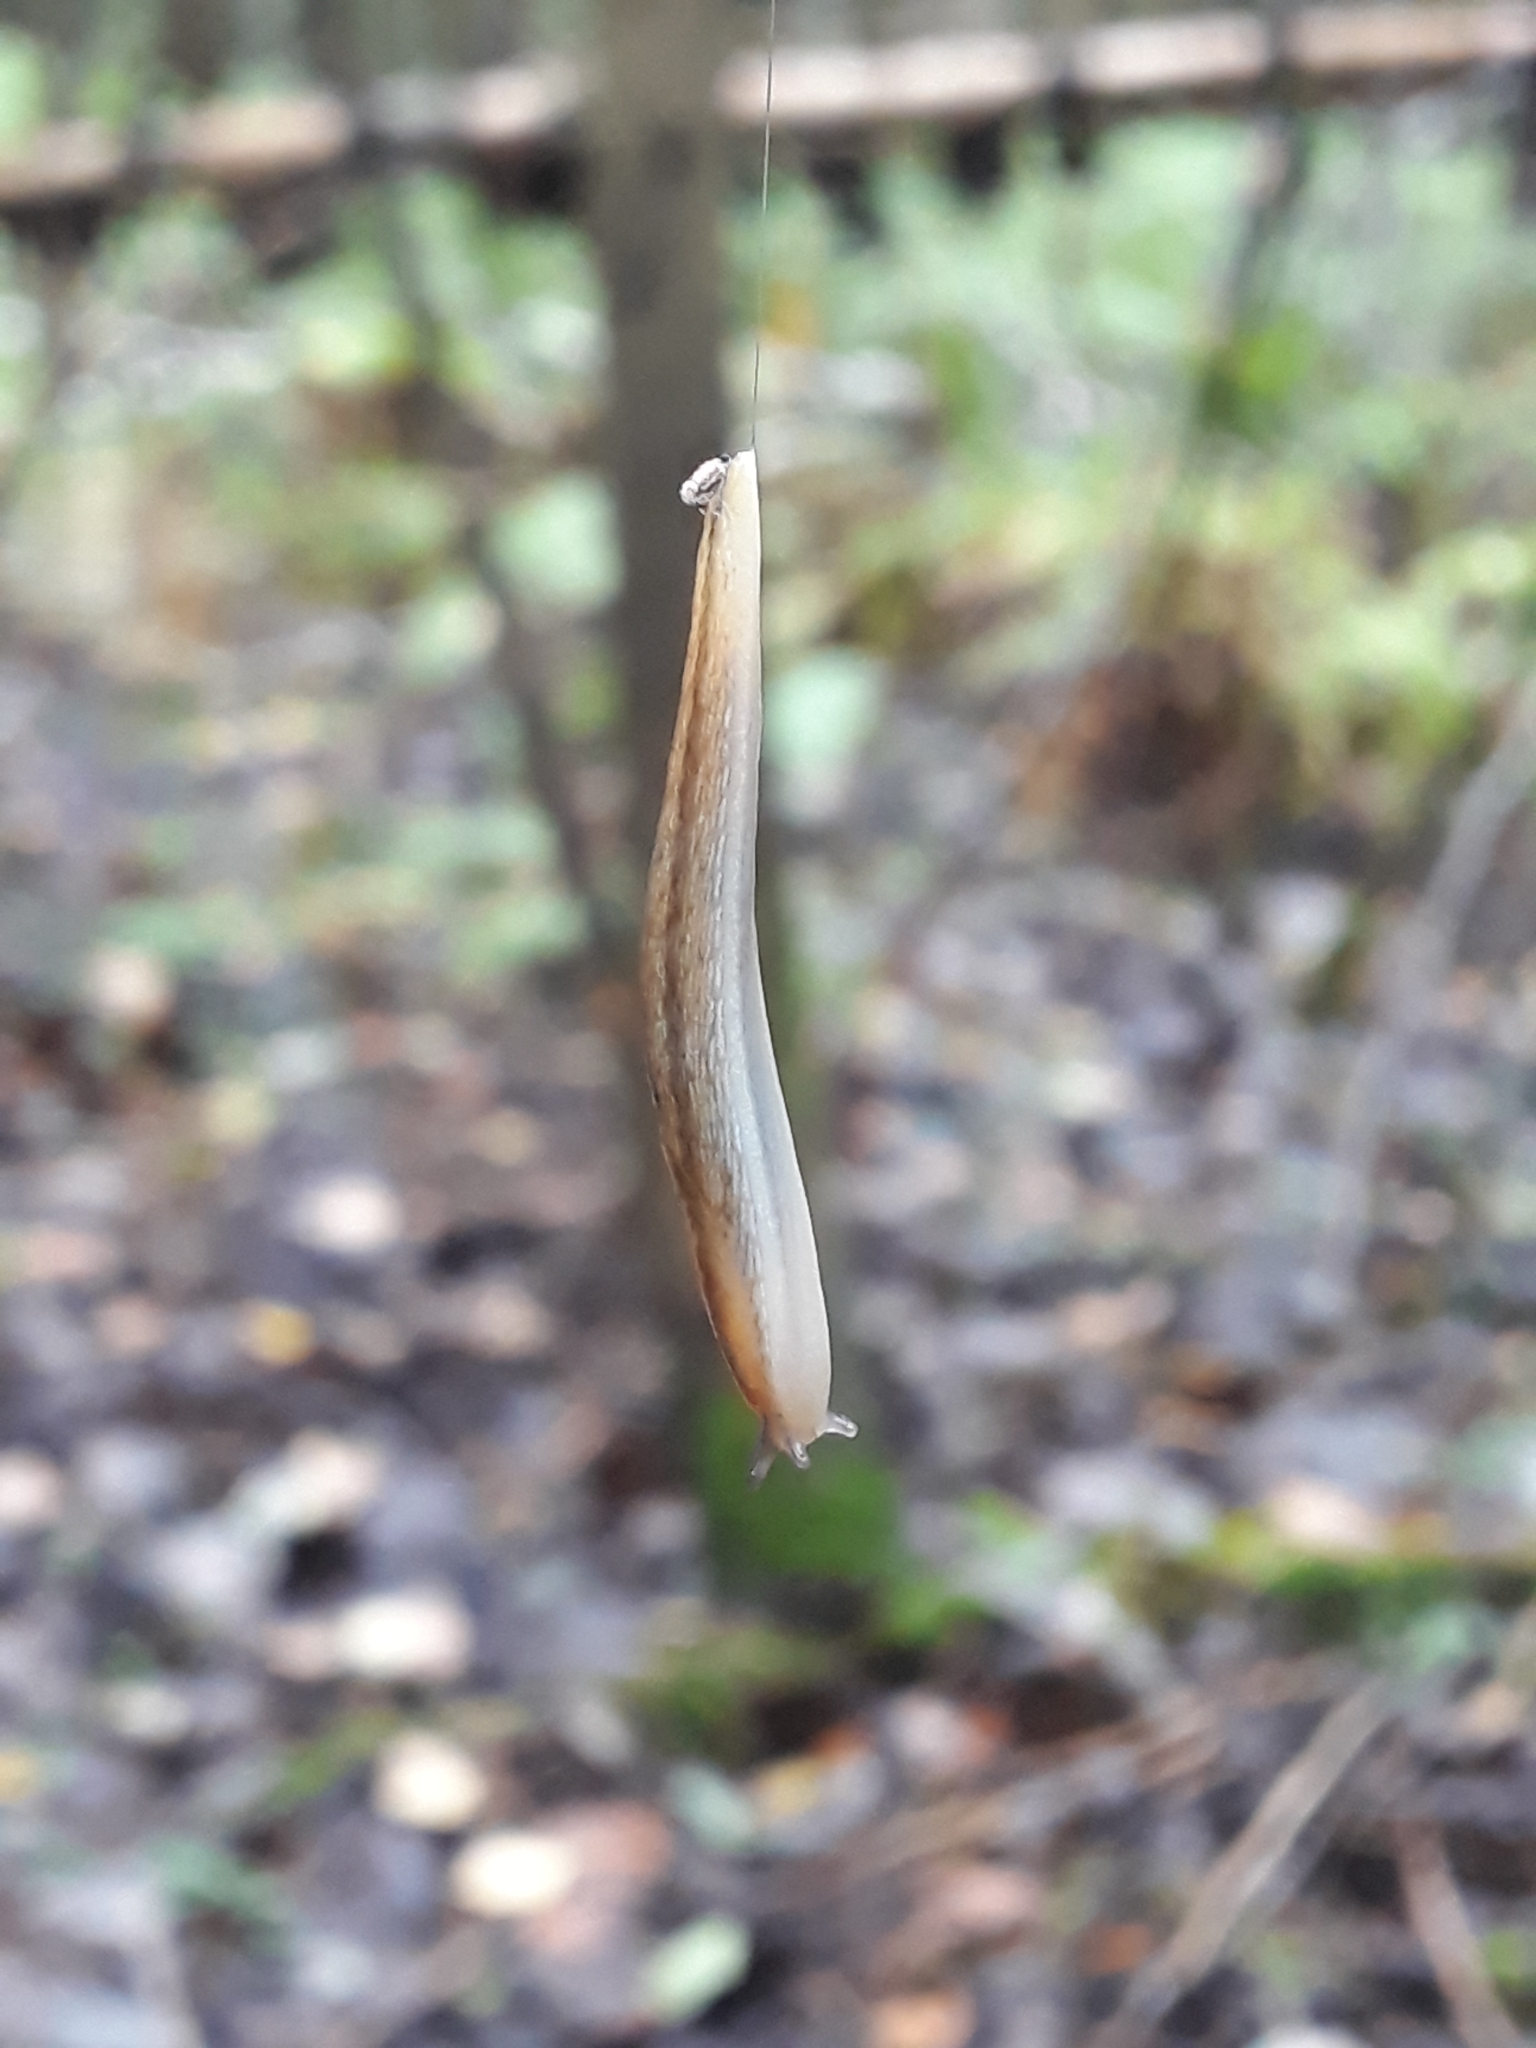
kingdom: Animalia
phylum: Mollusca
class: Gastropoda
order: Stylommatophora
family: Arionidae
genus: Arion
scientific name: Arion fuscus
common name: Northern dusky slug
